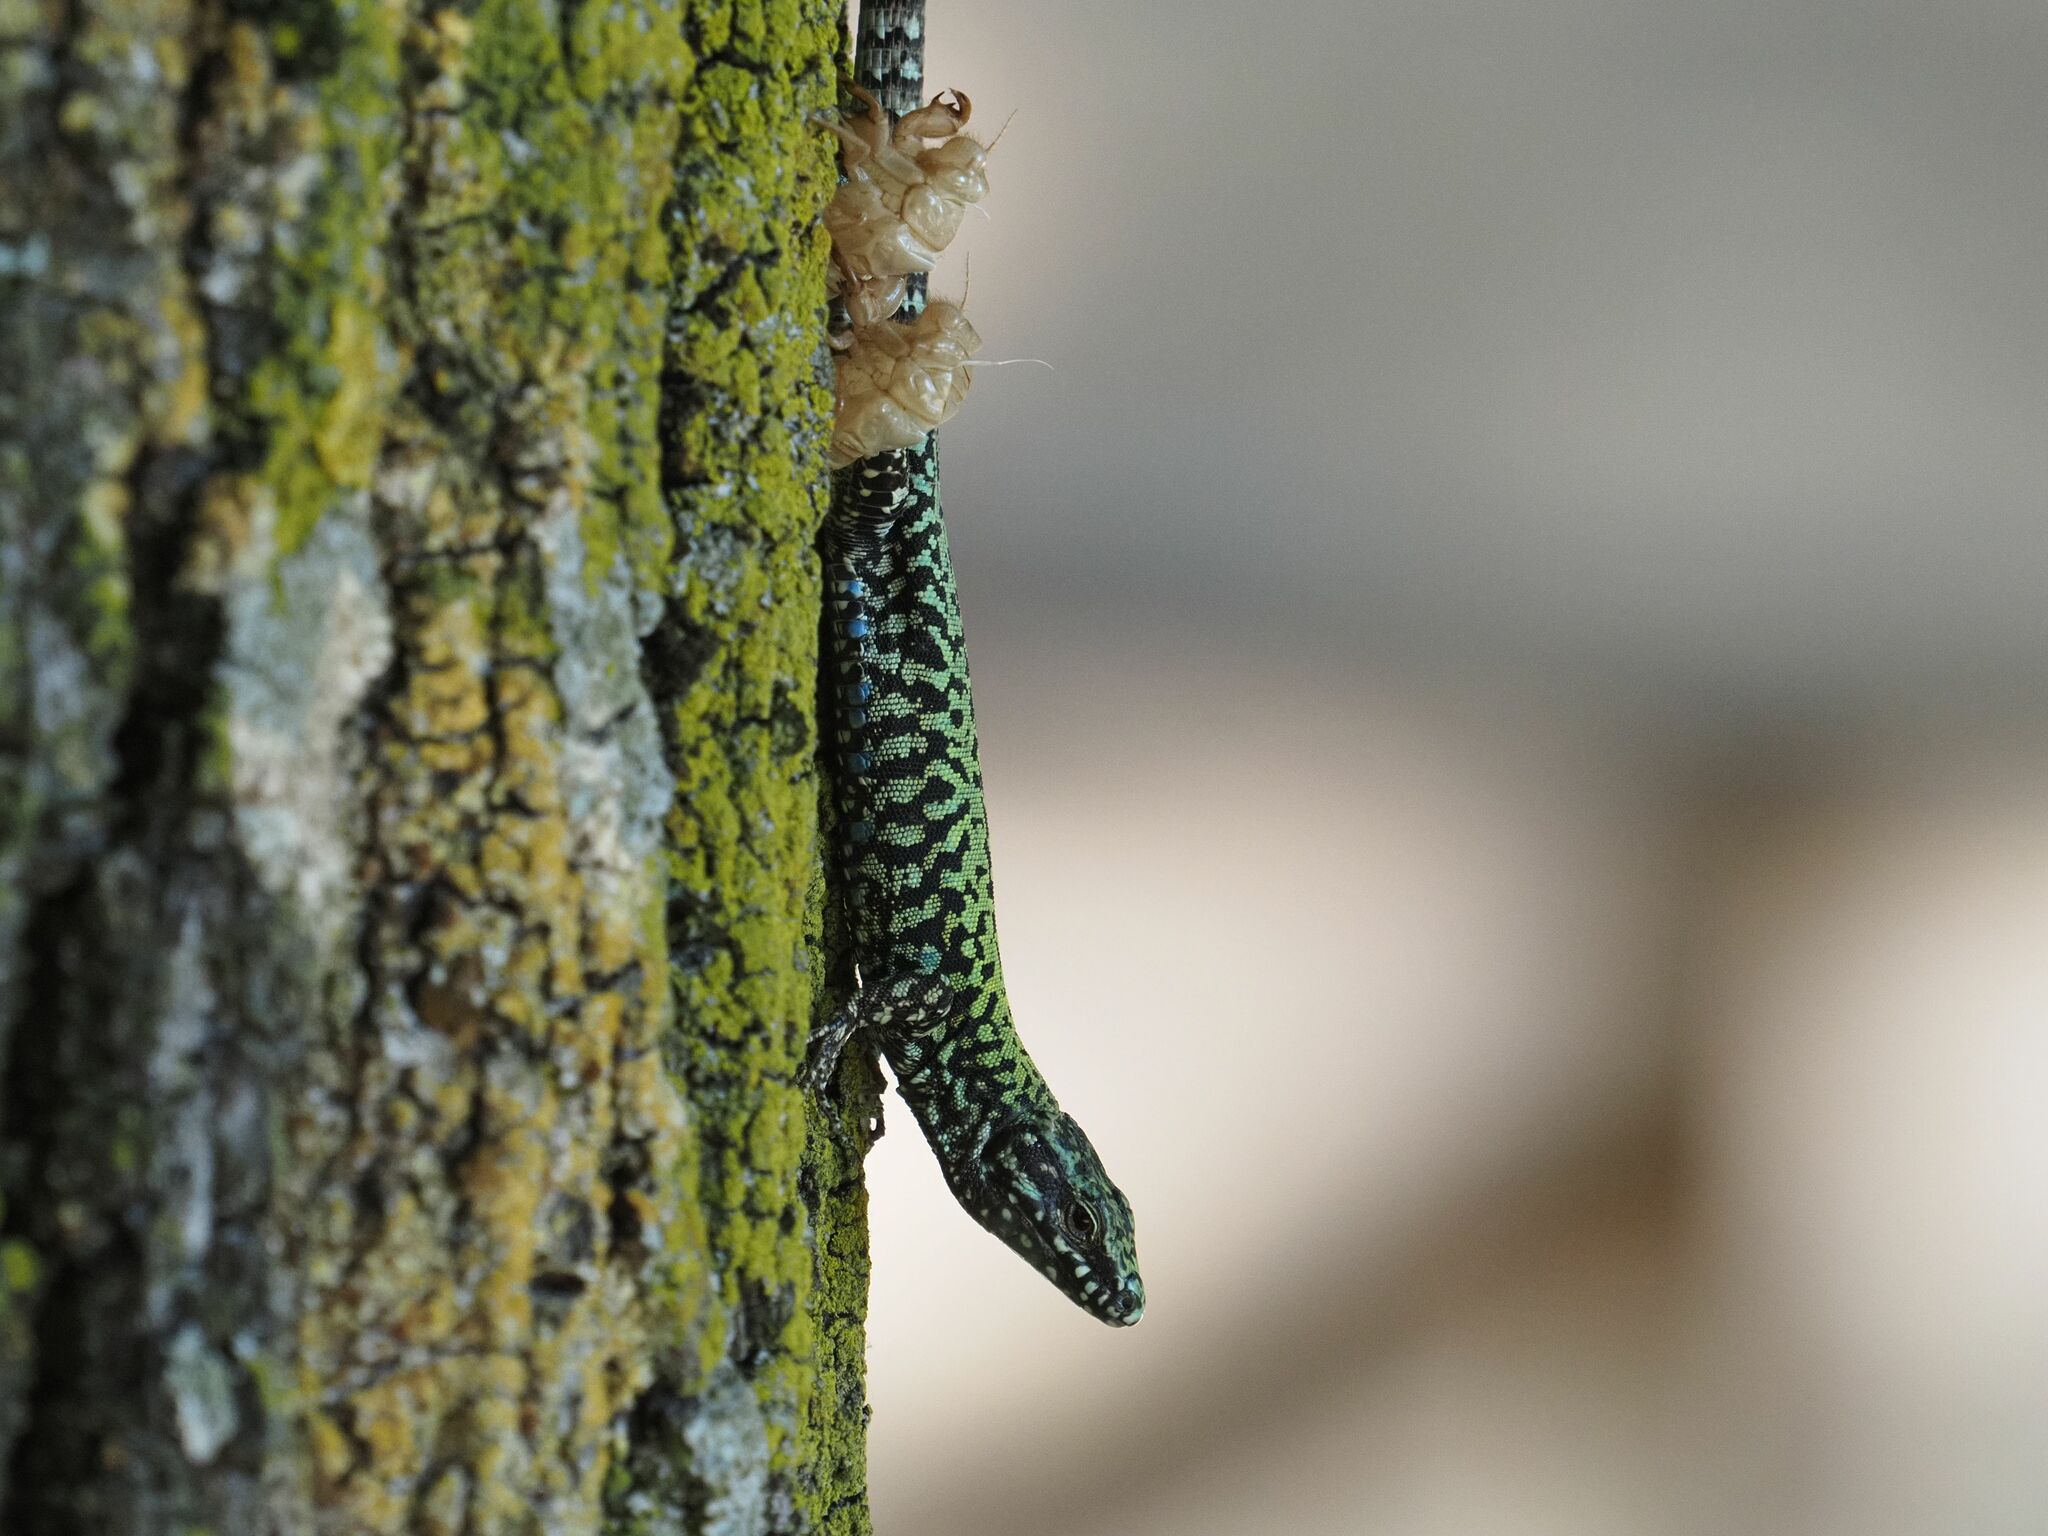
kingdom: Animalia
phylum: Chordata
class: Squamata
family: Lacertidae
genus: Podarcis
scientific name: Podarcis muralis
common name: Common wall lizard
